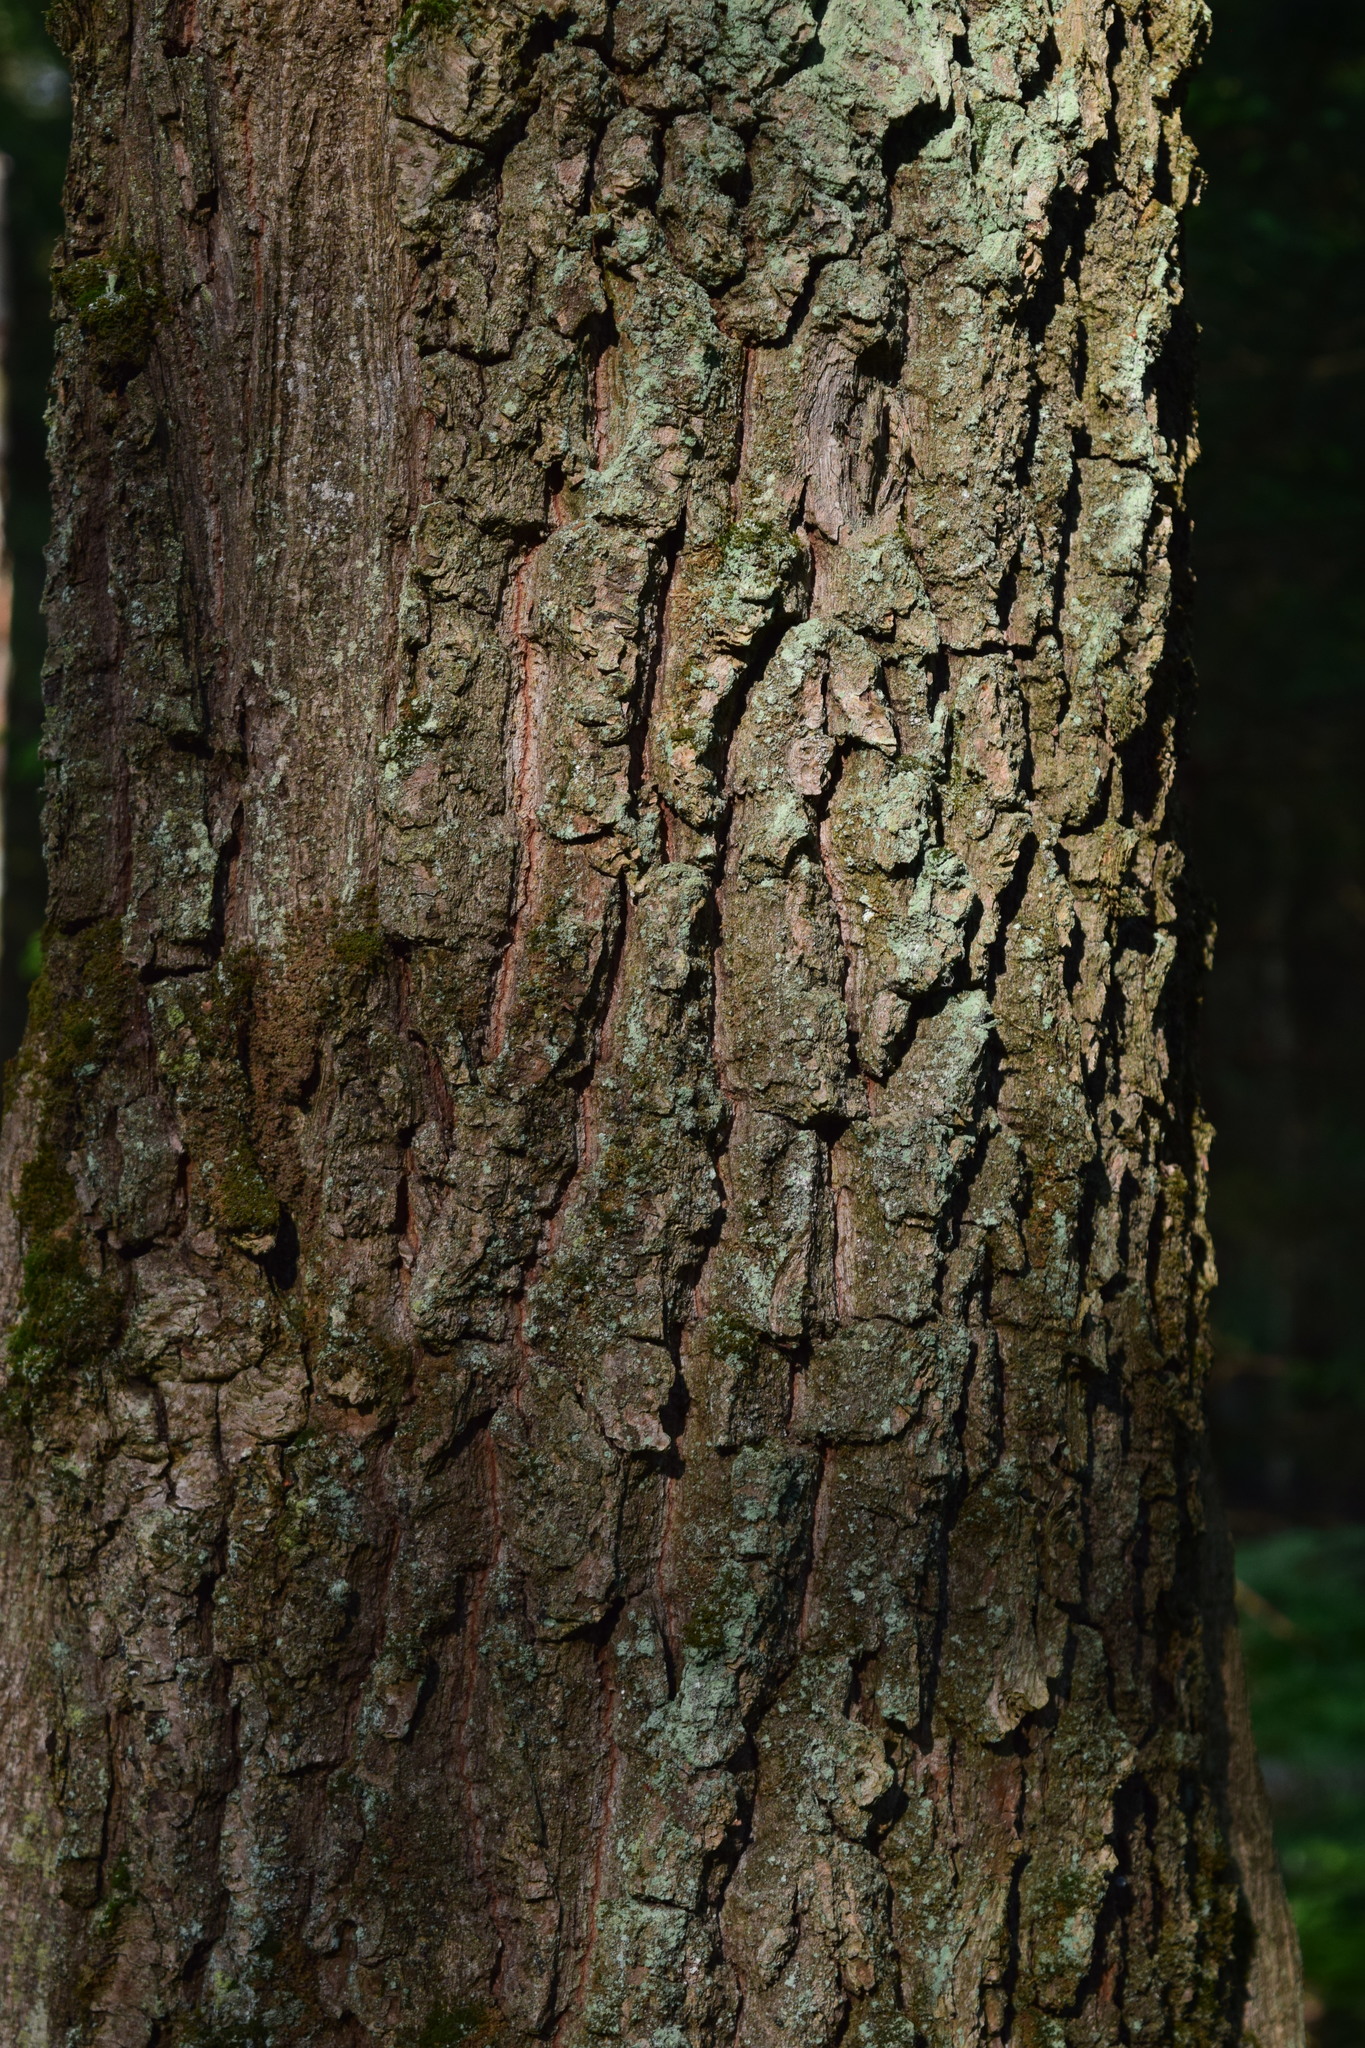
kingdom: Plantae
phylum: Tracheophyta
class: Magnoliopsida
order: Fagales
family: Fagaceae
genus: Quercus
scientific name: Quercus robur
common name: Pedunculate oak
